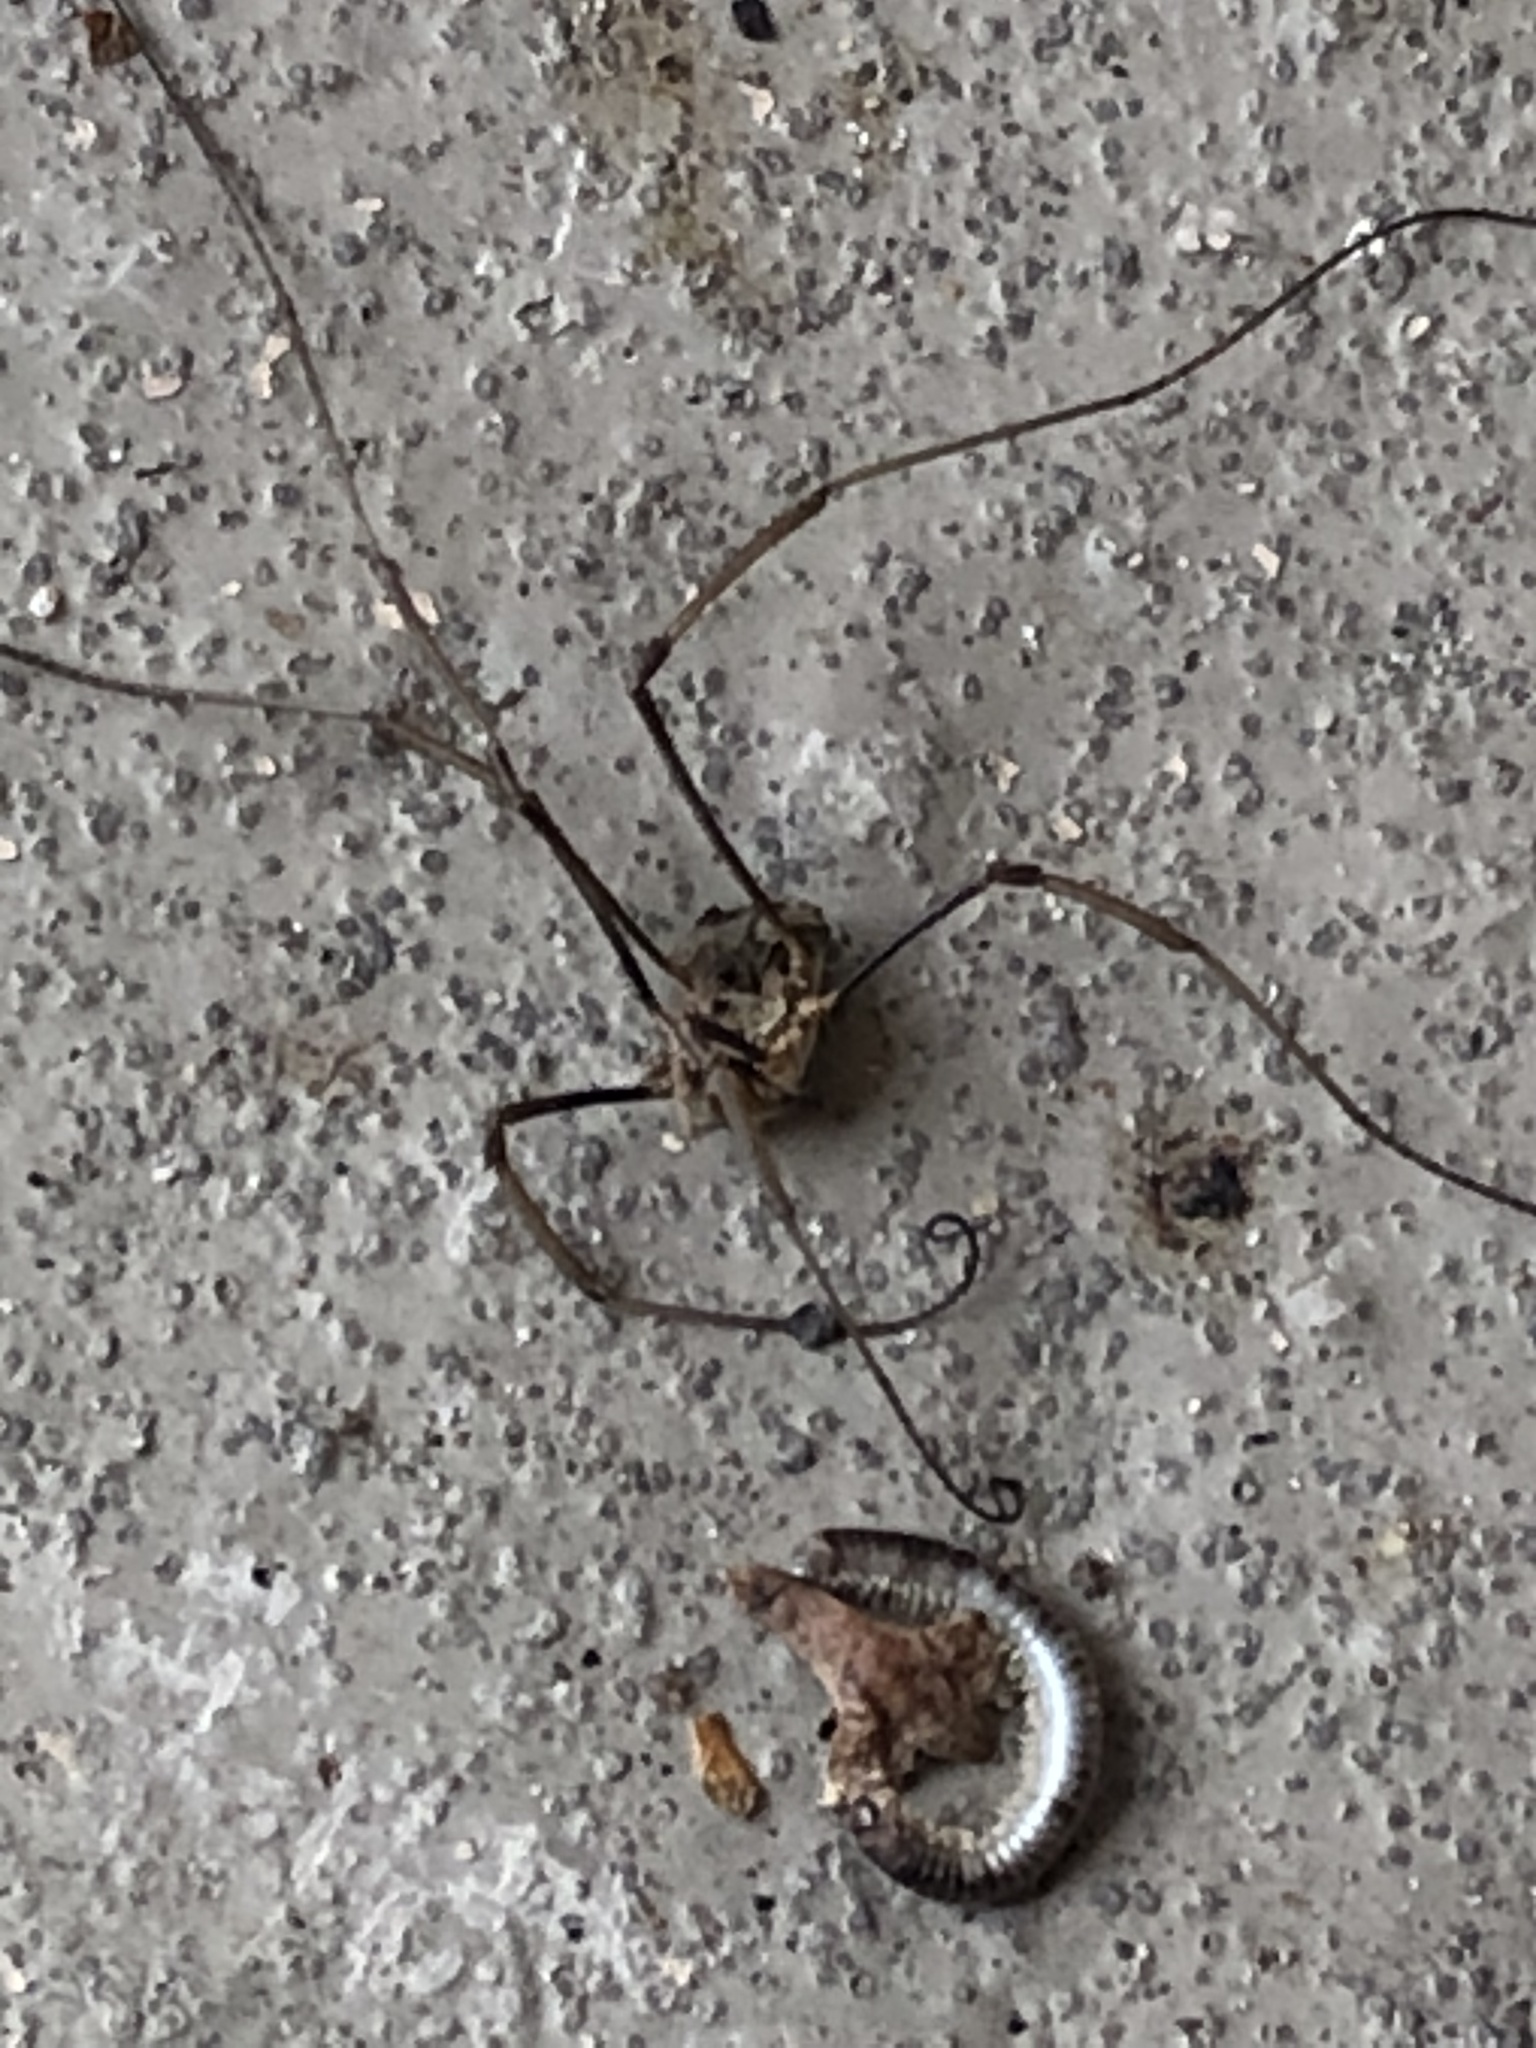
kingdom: Animalia
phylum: Arthropoda
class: Arachnida
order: Opiliones
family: Phalangiidae
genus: Phalangium
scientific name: Phalangium opilio
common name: Daddy longleg
